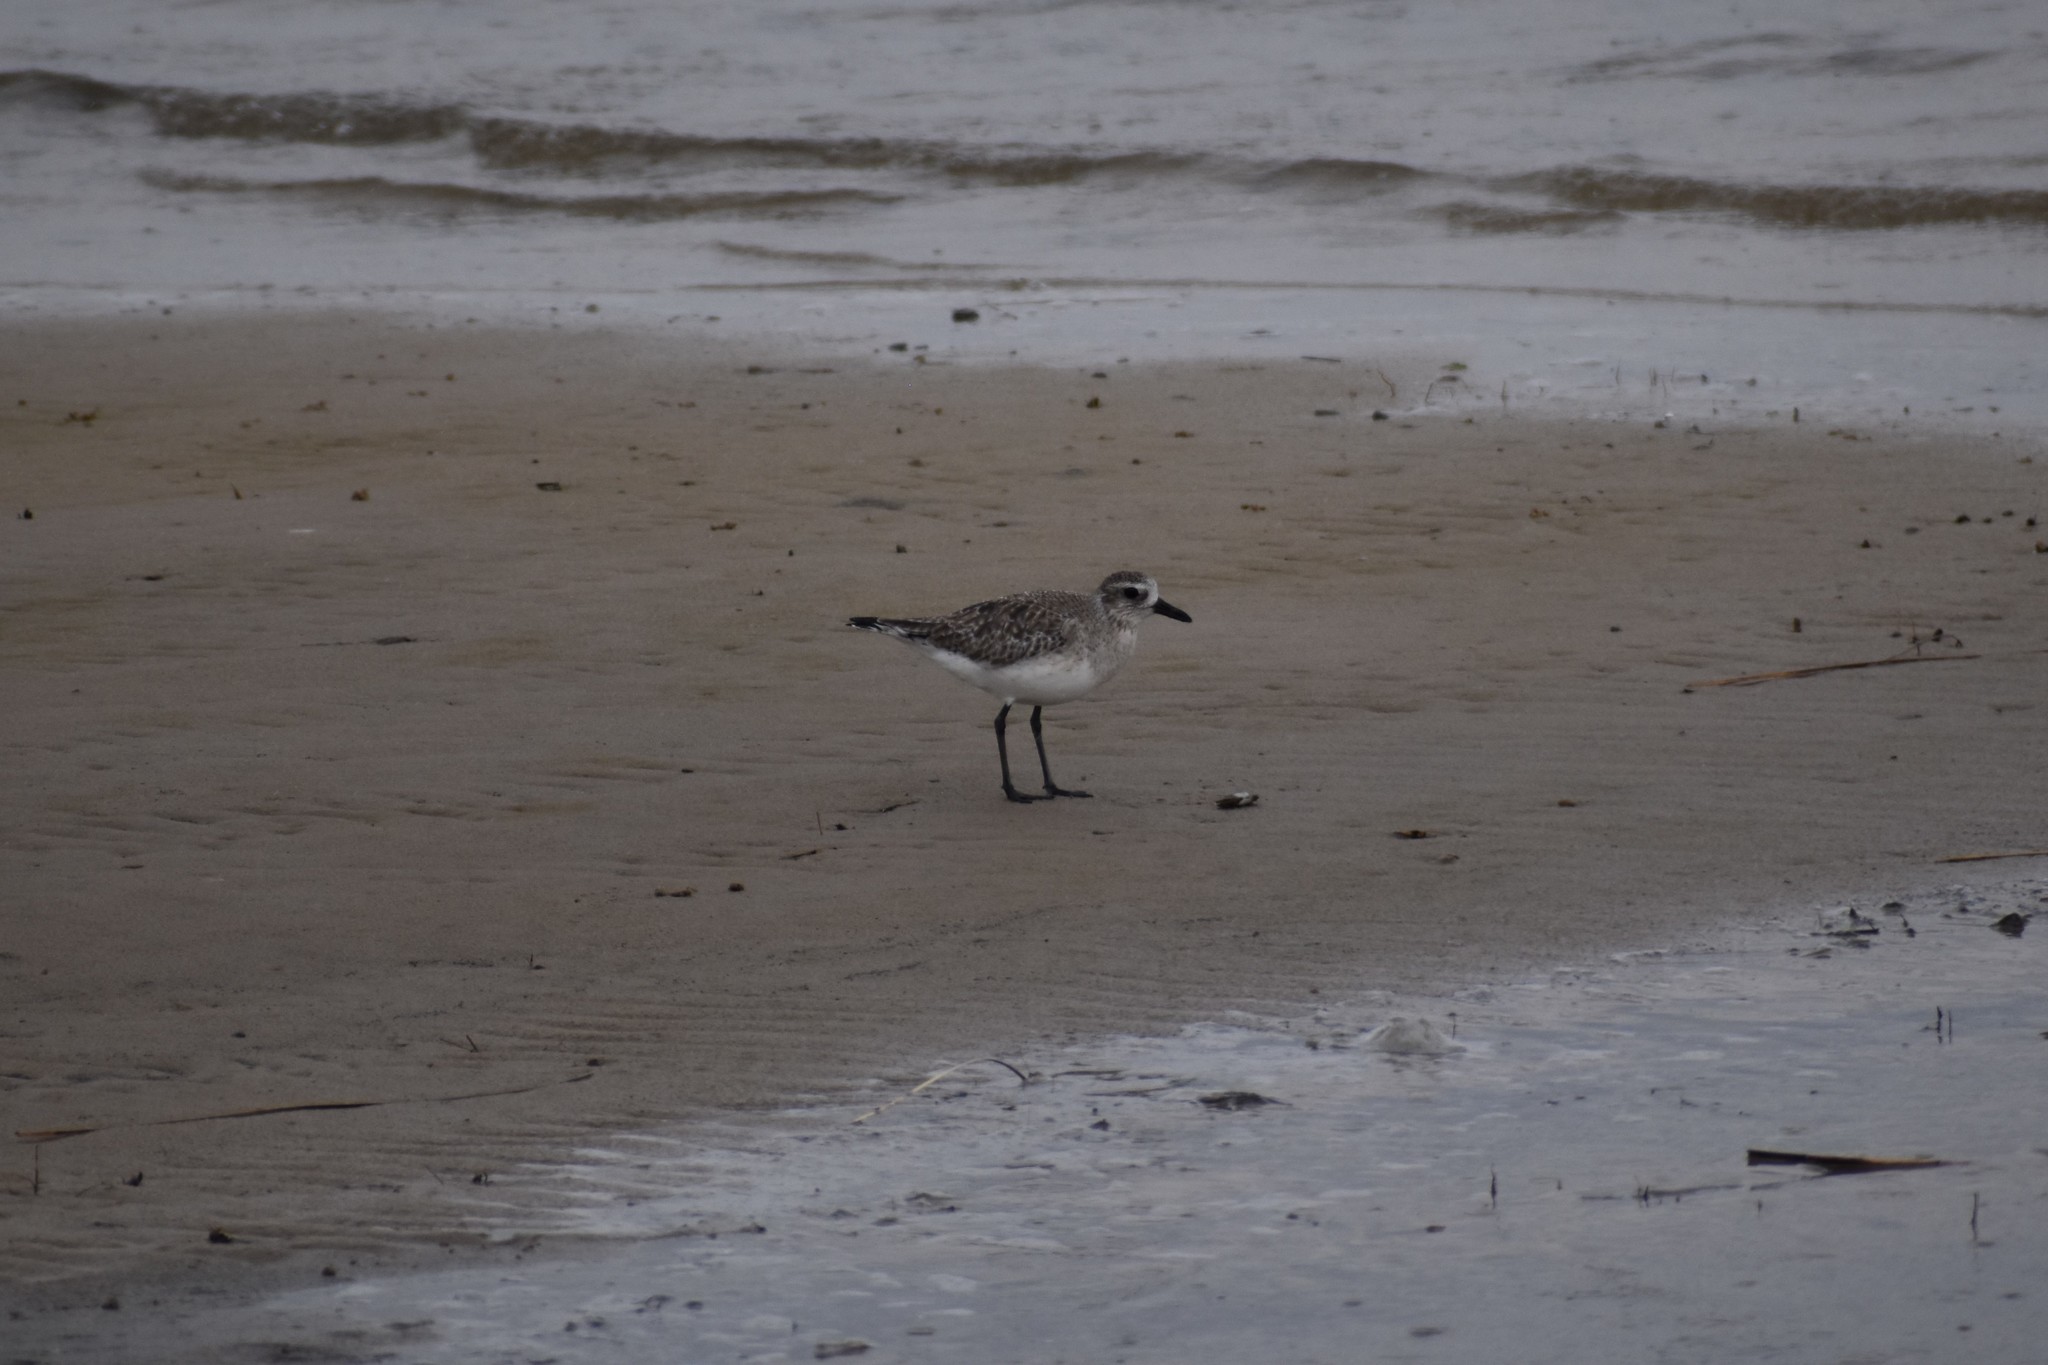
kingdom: Animalia
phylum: Chordata
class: Aves
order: Charadriiformes
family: Charadriidae
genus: Pluvialis
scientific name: Pluvialis squatarola
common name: Grey plover
